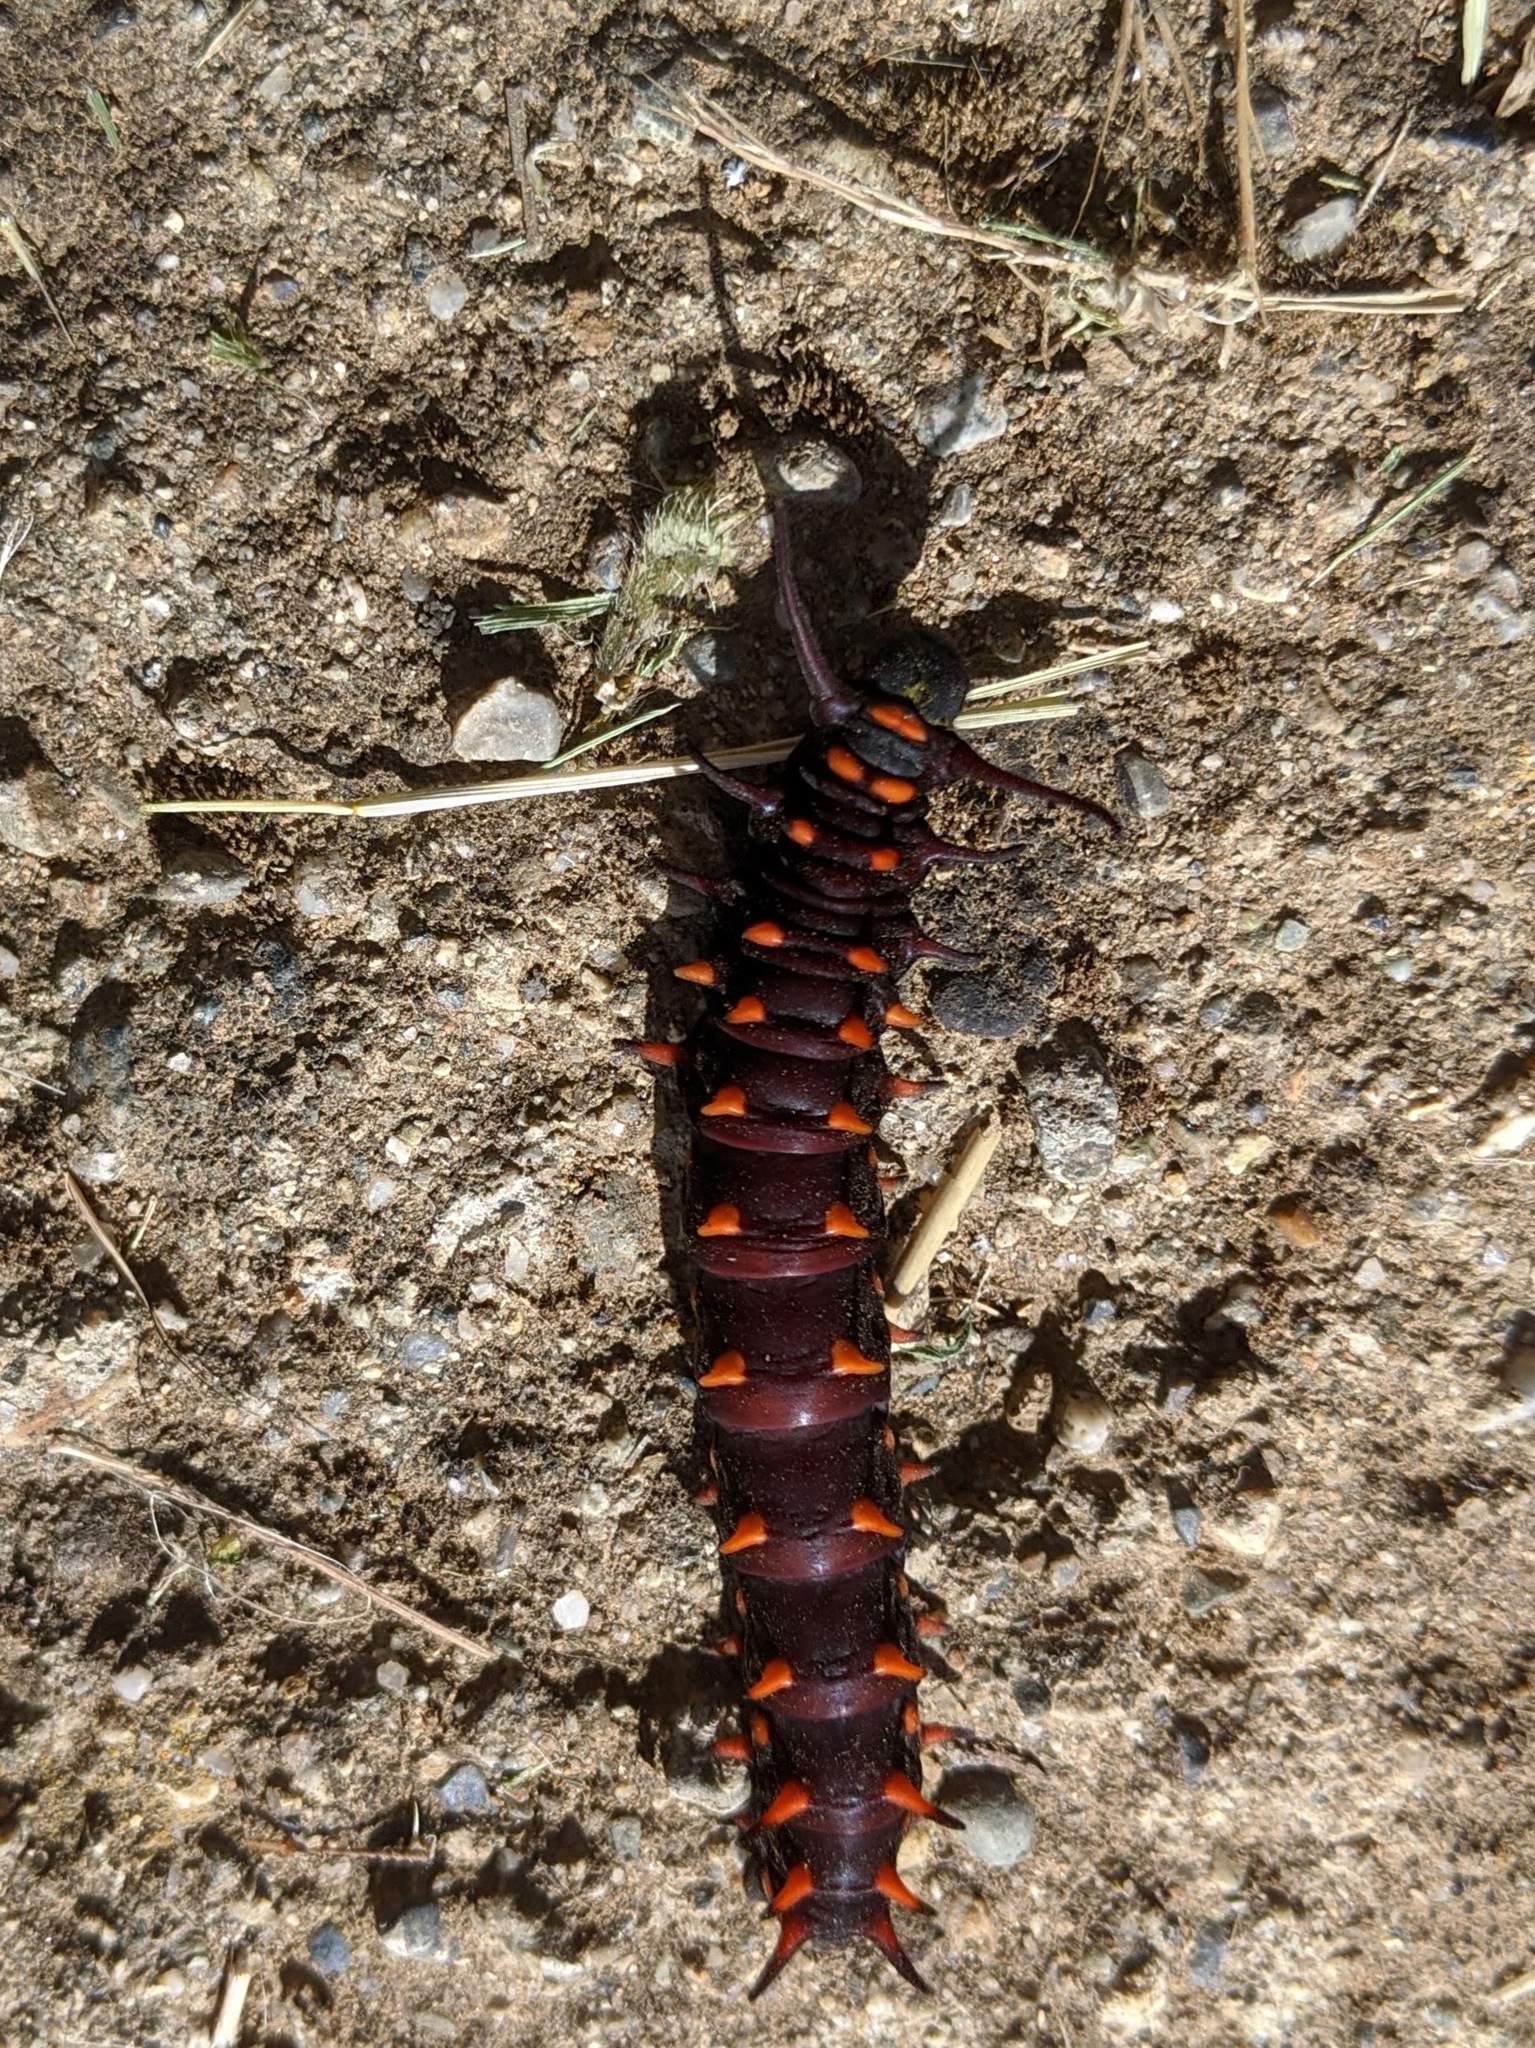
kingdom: Animalia
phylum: Arthropoda
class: Insecta
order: Lepidoptera
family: Papilionidae
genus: Battus
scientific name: Battus philenor
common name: Pipevine swallowtail
